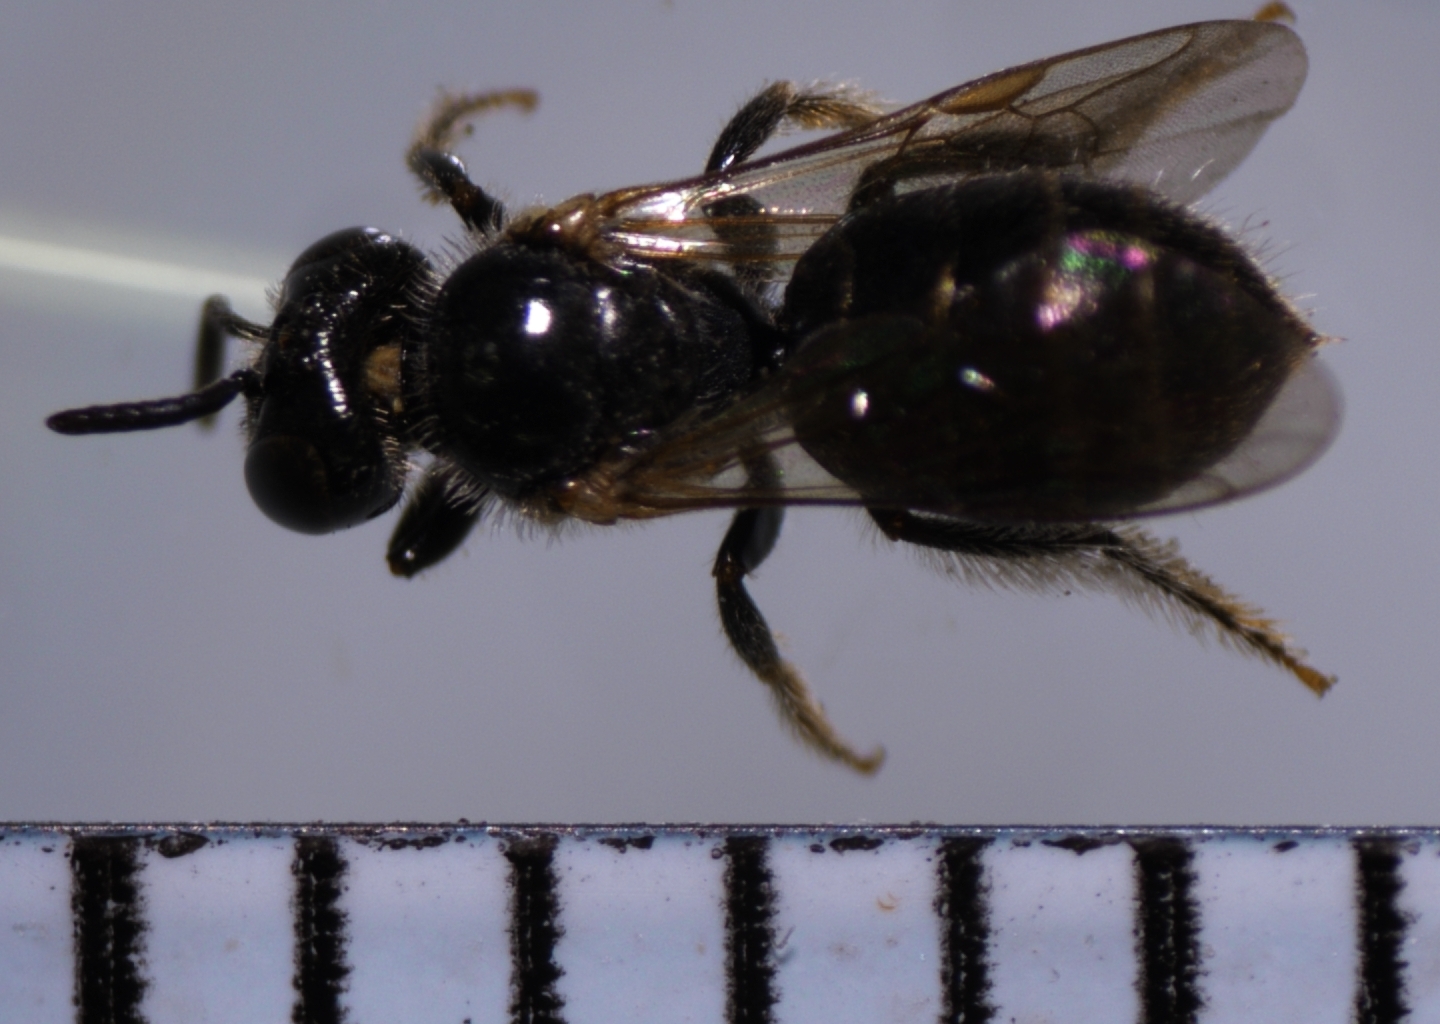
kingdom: Animalia
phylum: Arthropoda
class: Insecta
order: Hymenoptera
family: Apidae
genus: Braunsapis
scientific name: Braunsapis puangensis
